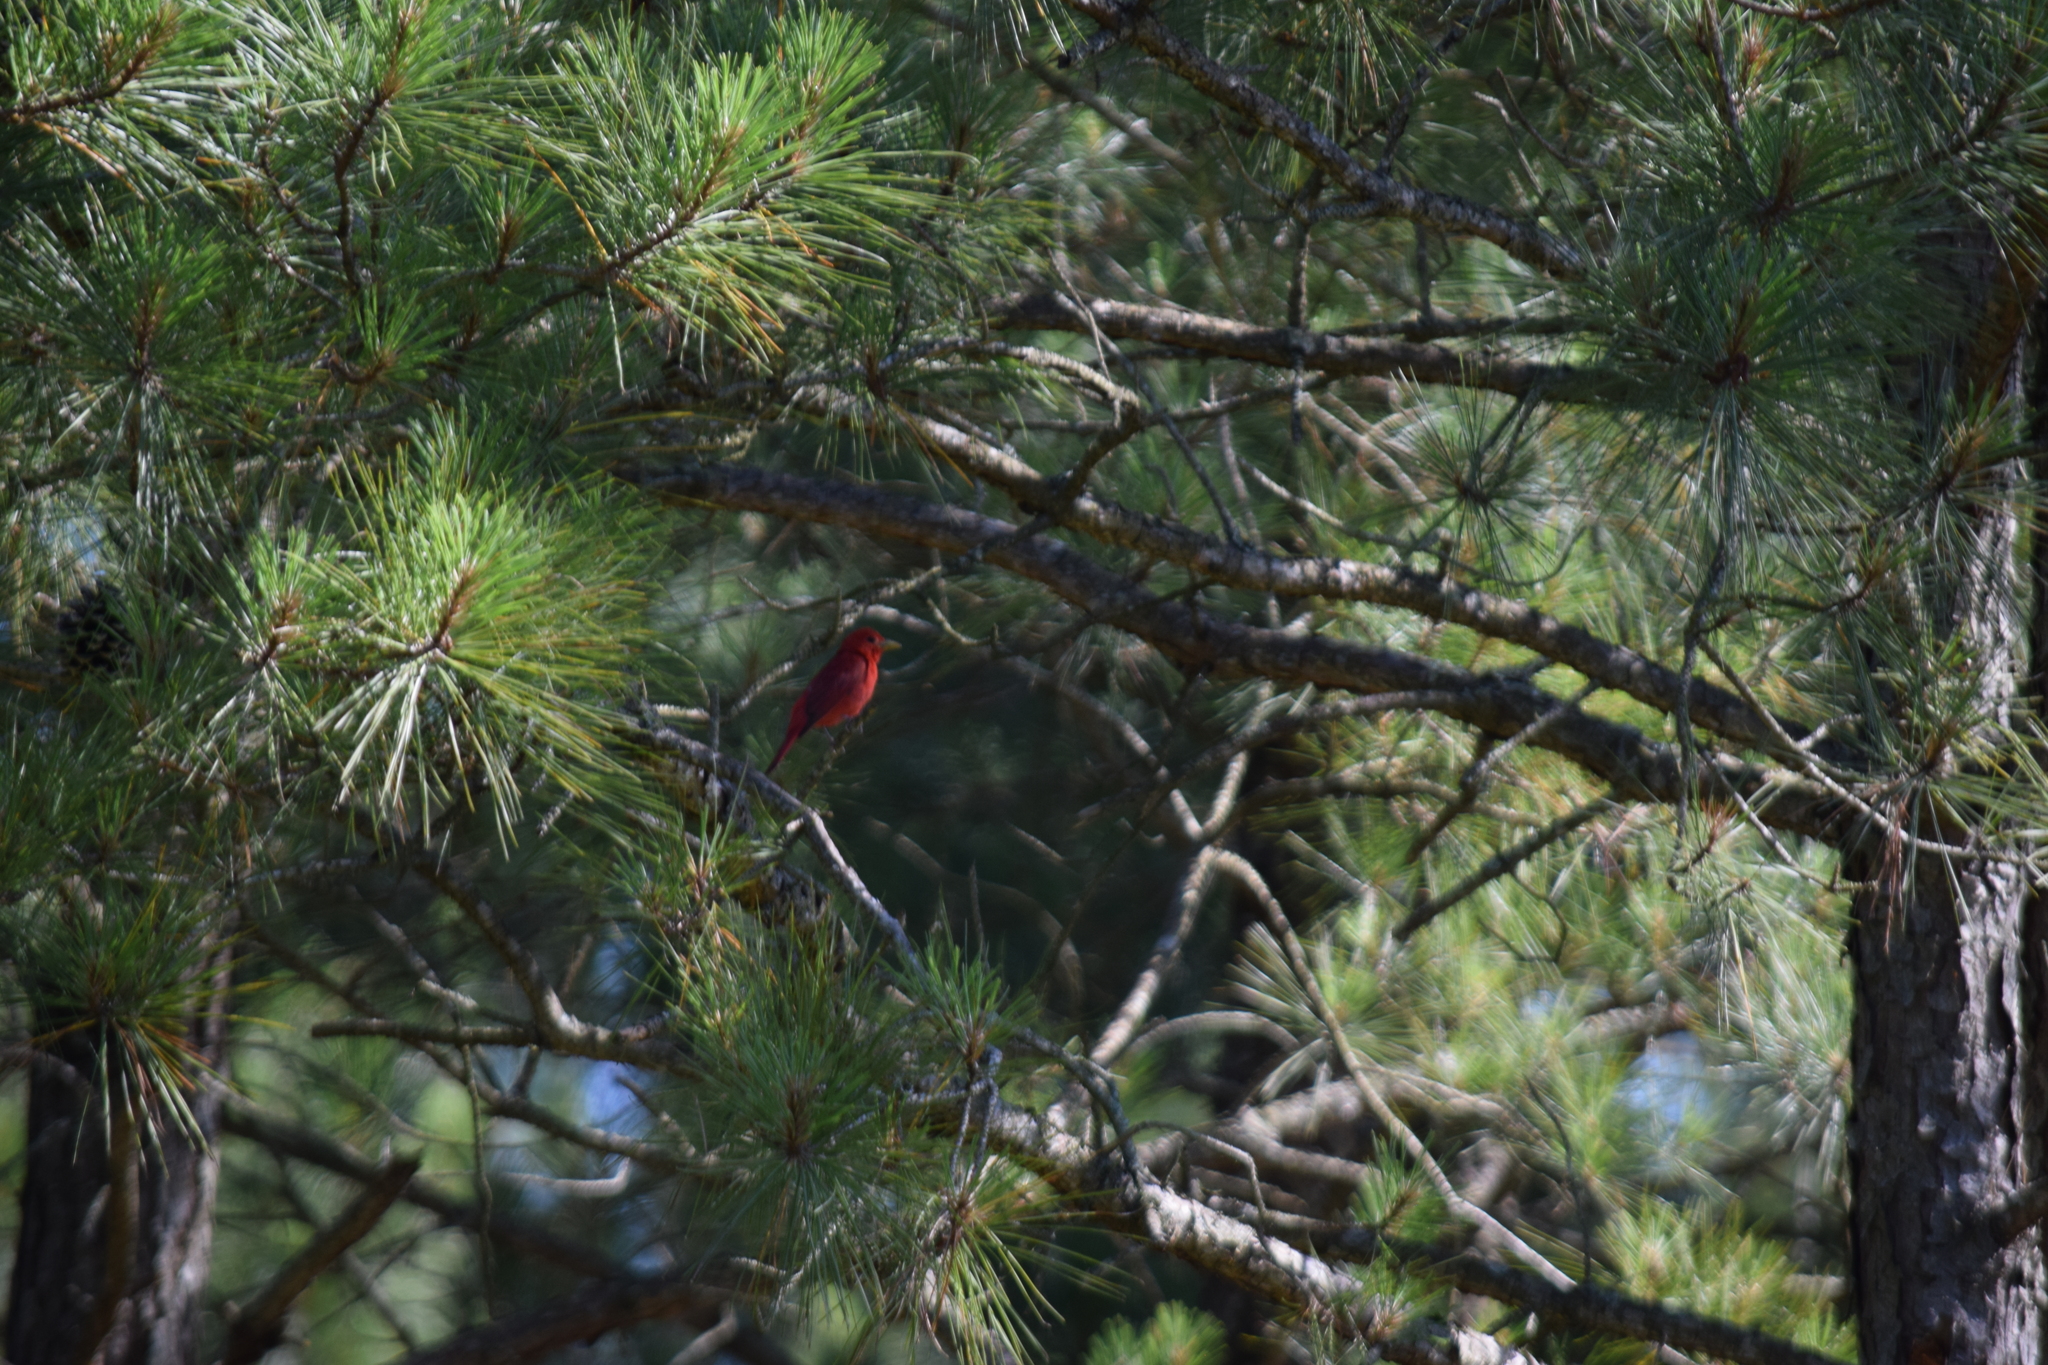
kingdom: Animalia
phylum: Chordata
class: Aves
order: Passeriformes
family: Cardinalidae
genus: Piranga
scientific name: Piranga rubra
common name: Summer tanager
